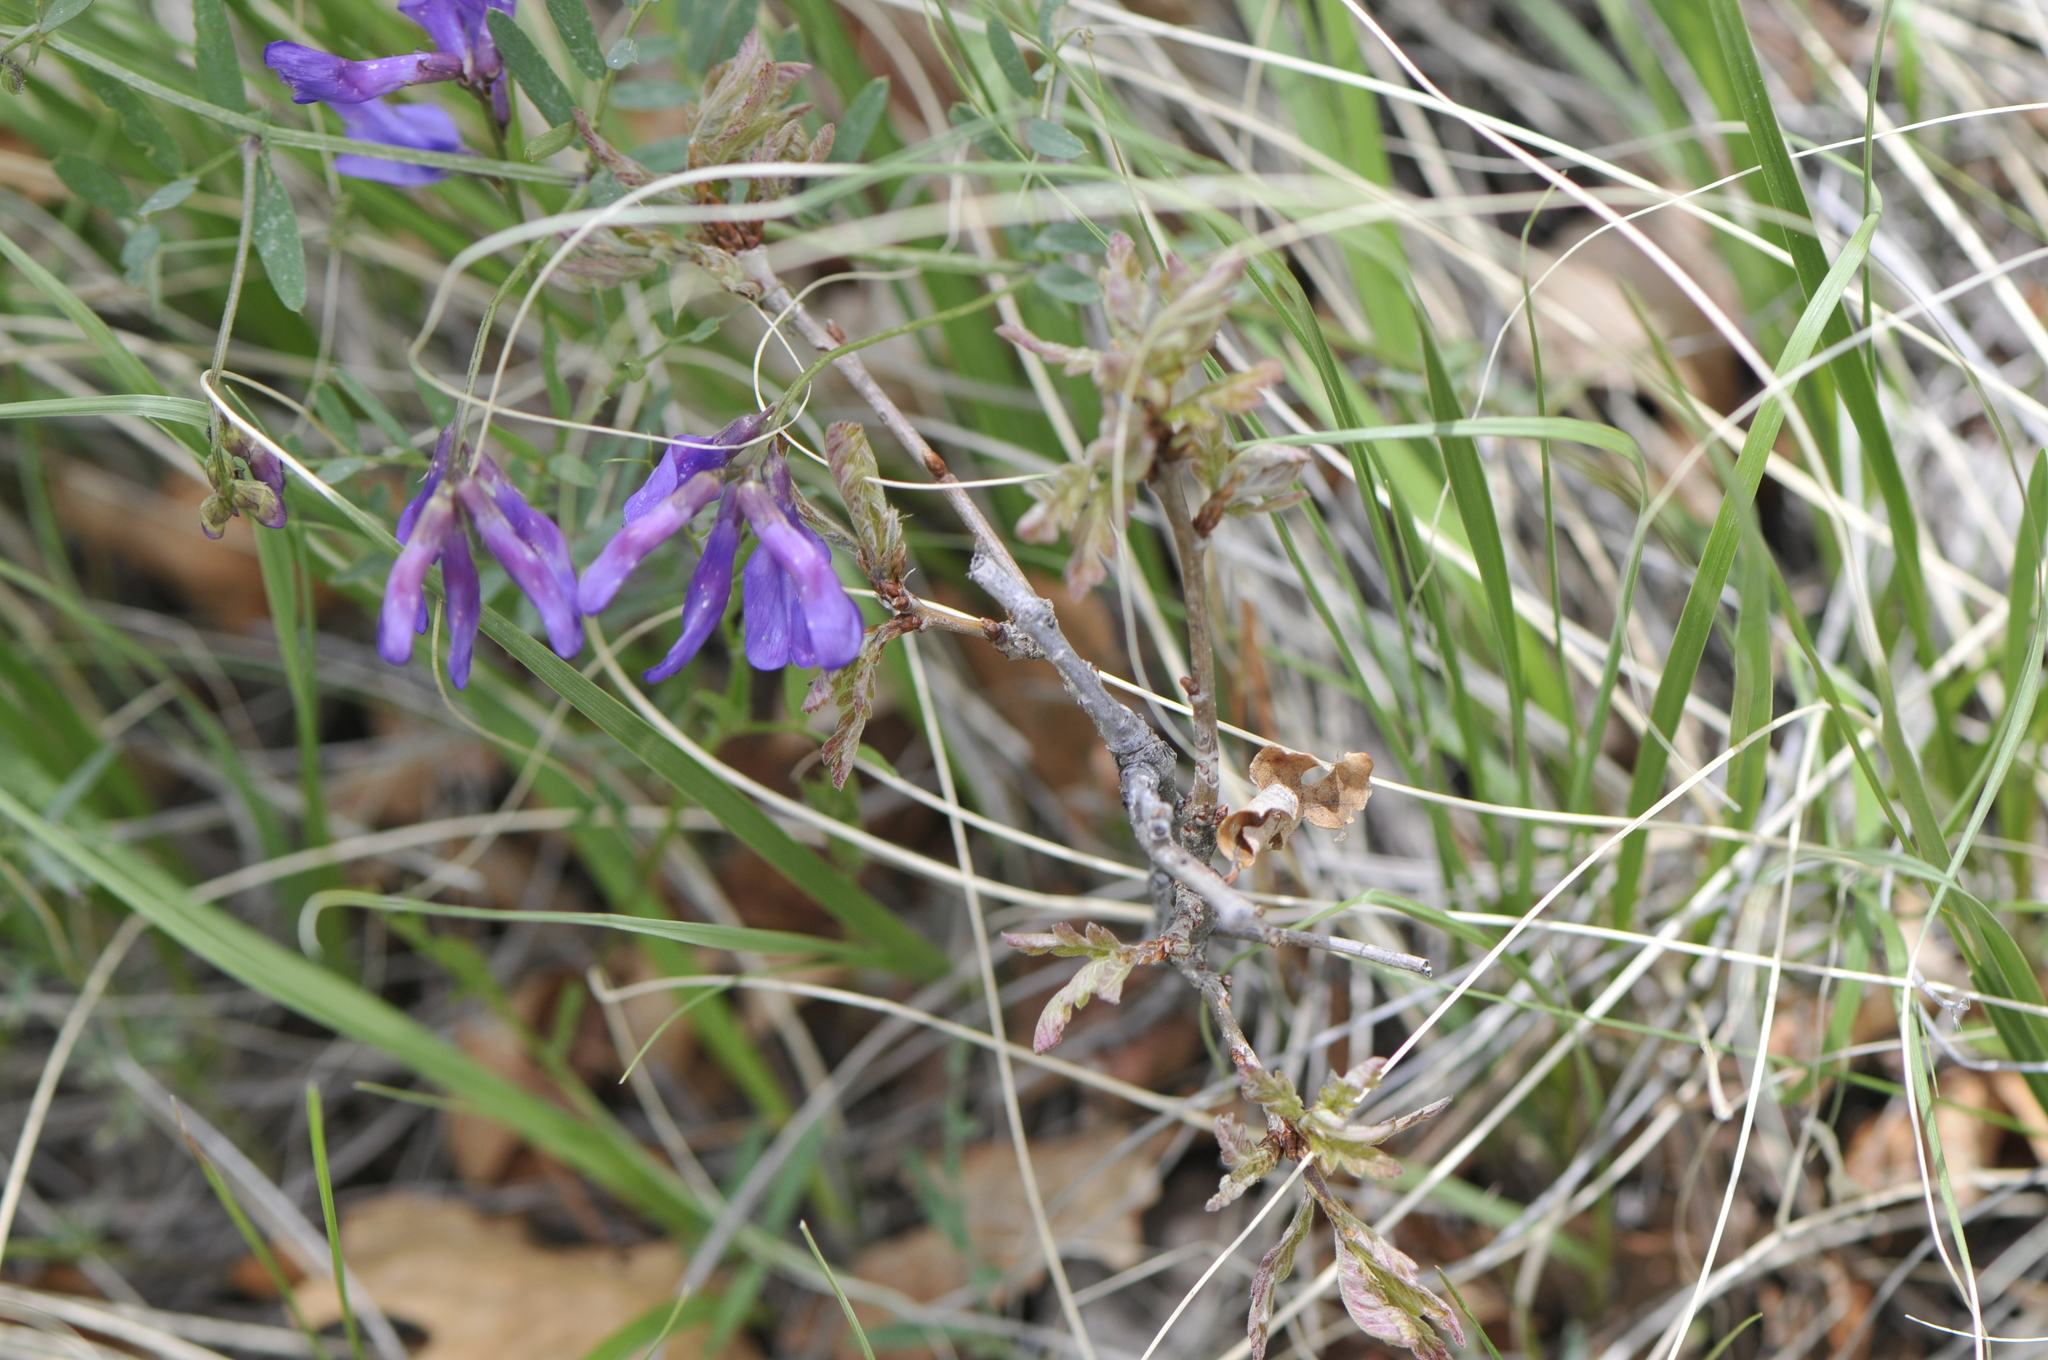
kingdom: Plantae
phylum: Tracheophyta
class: Magnoliopsida
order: Fabales
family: Fabaceae
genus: Vicia
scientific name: Vicia americana
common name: American vetch
